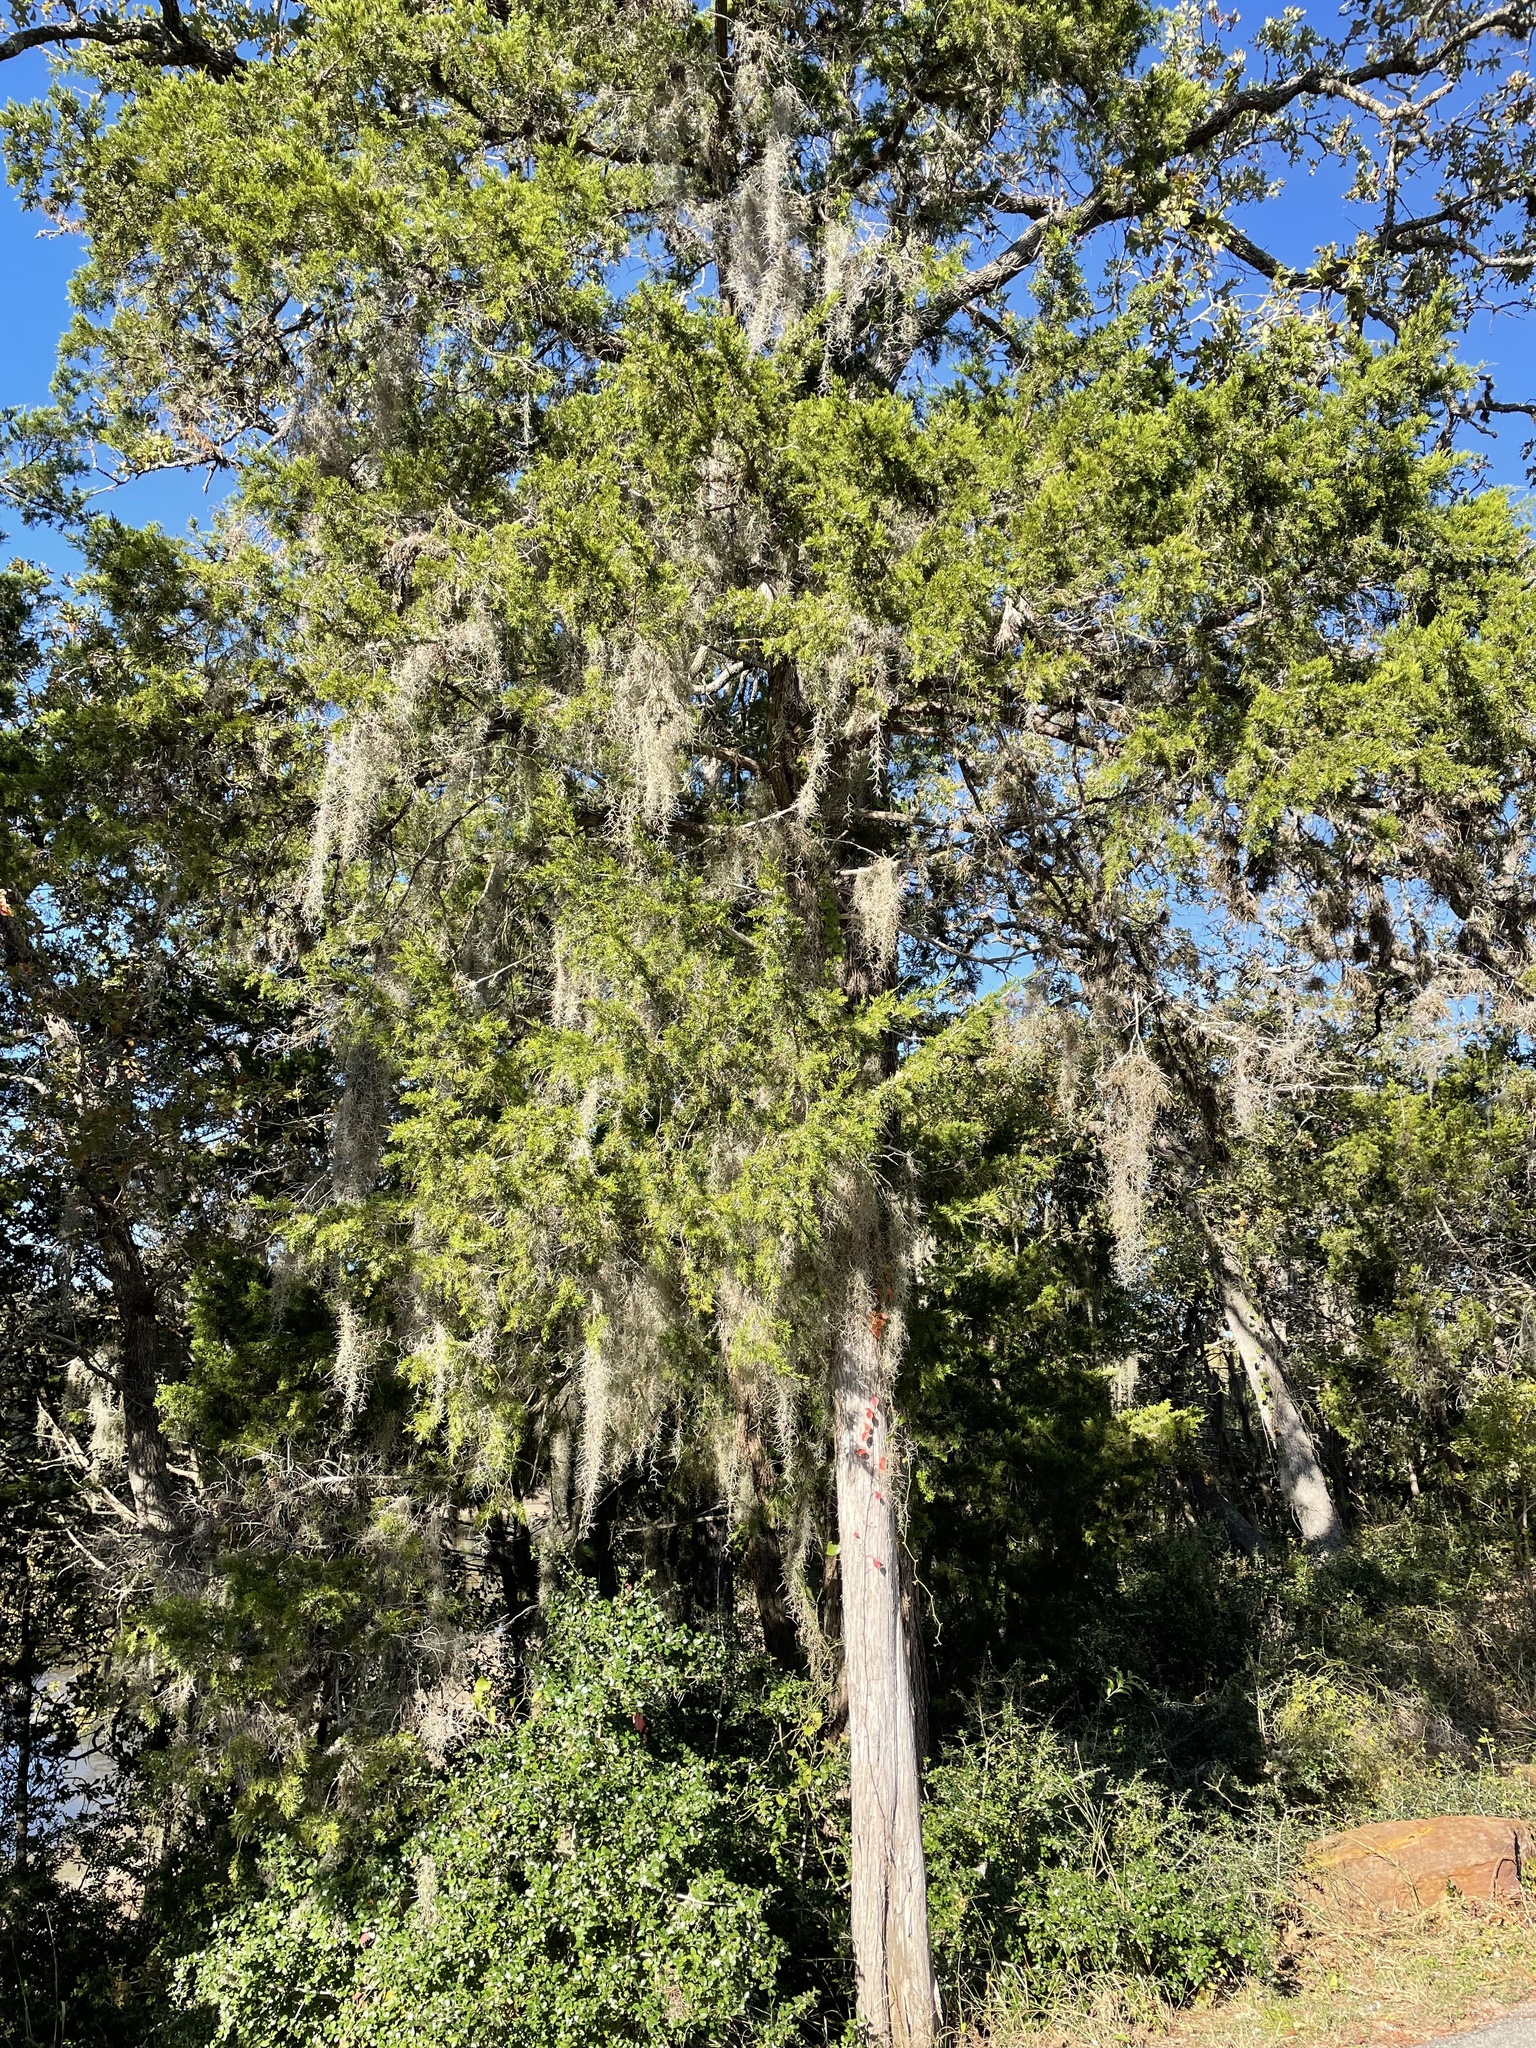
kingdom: Plantae
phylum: Tracheophyta
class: Liliopsida
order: Poales
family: Bromeliaceae
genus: Tillandsia
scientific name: Tillandsia usneoides
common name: Spanish moss
